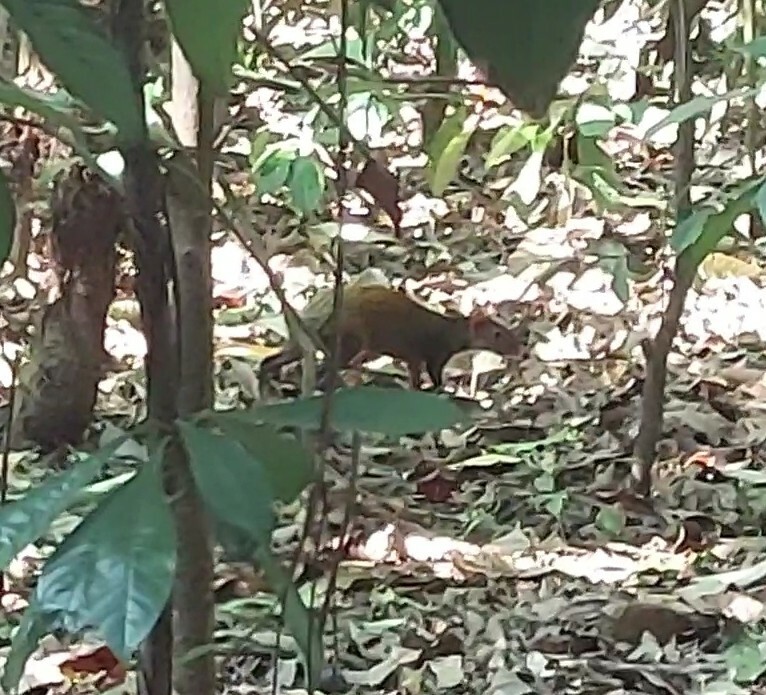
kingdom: Animalia
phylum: Chordata
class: Mammalia
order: Rodentia
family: Dasyproctidae
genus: Dasyprocta
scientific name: Dasyprocta punctata
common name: Central american agouti
